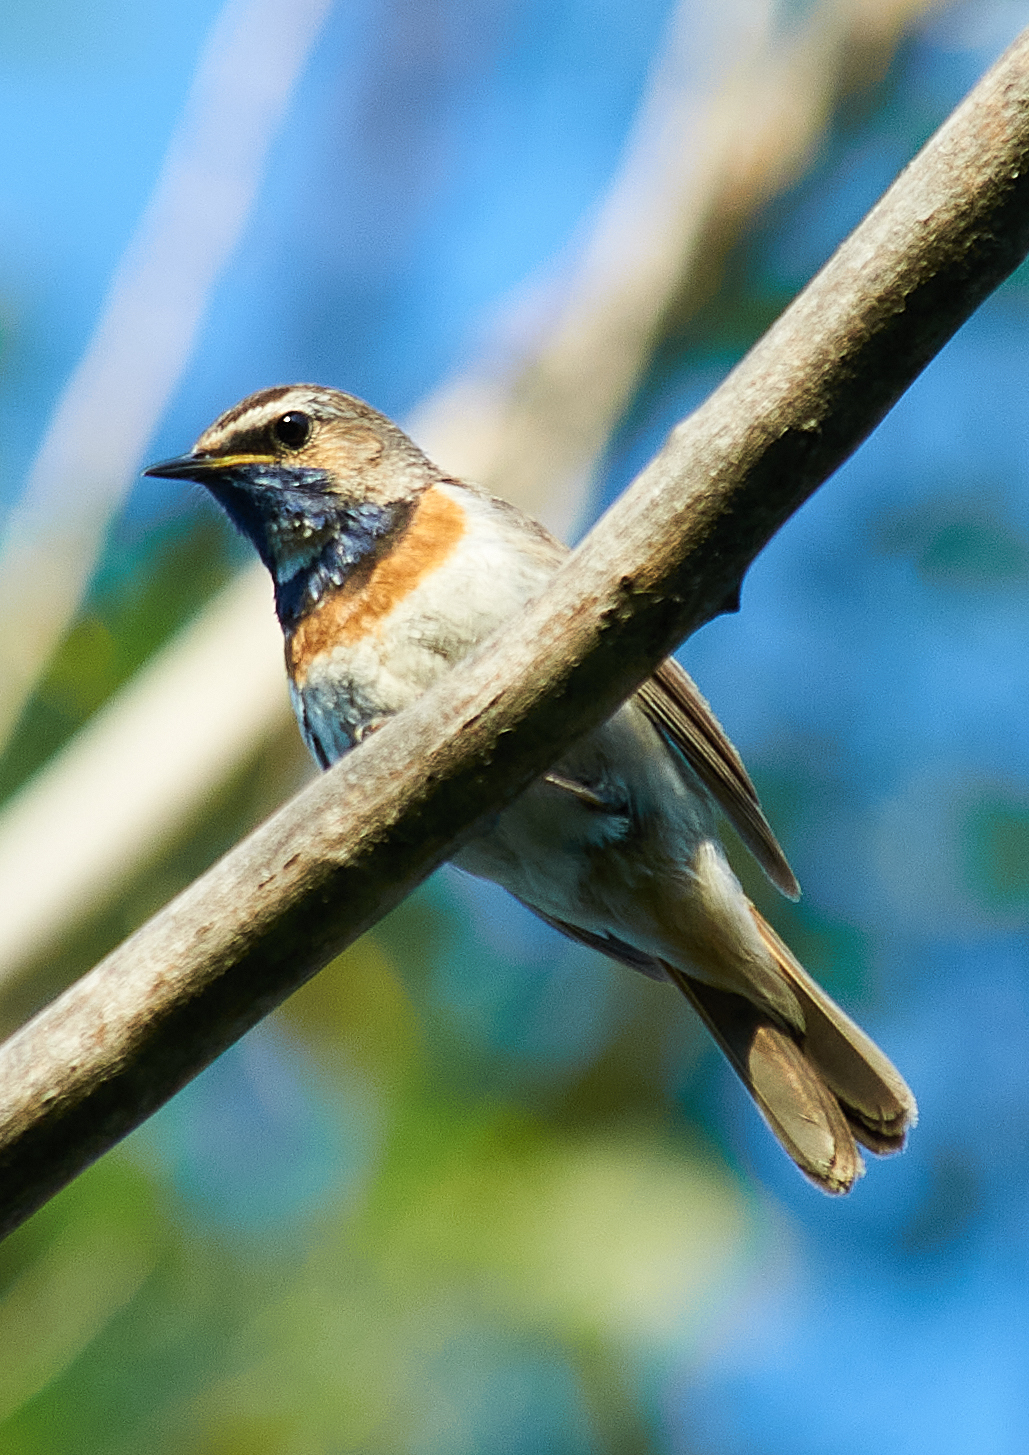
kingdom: Animalia
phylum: Chordata
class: Aves
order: Passeriformes
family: Muscicapidae
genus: Luscinia
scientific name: Luscinia svecica
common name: Bluethroat
